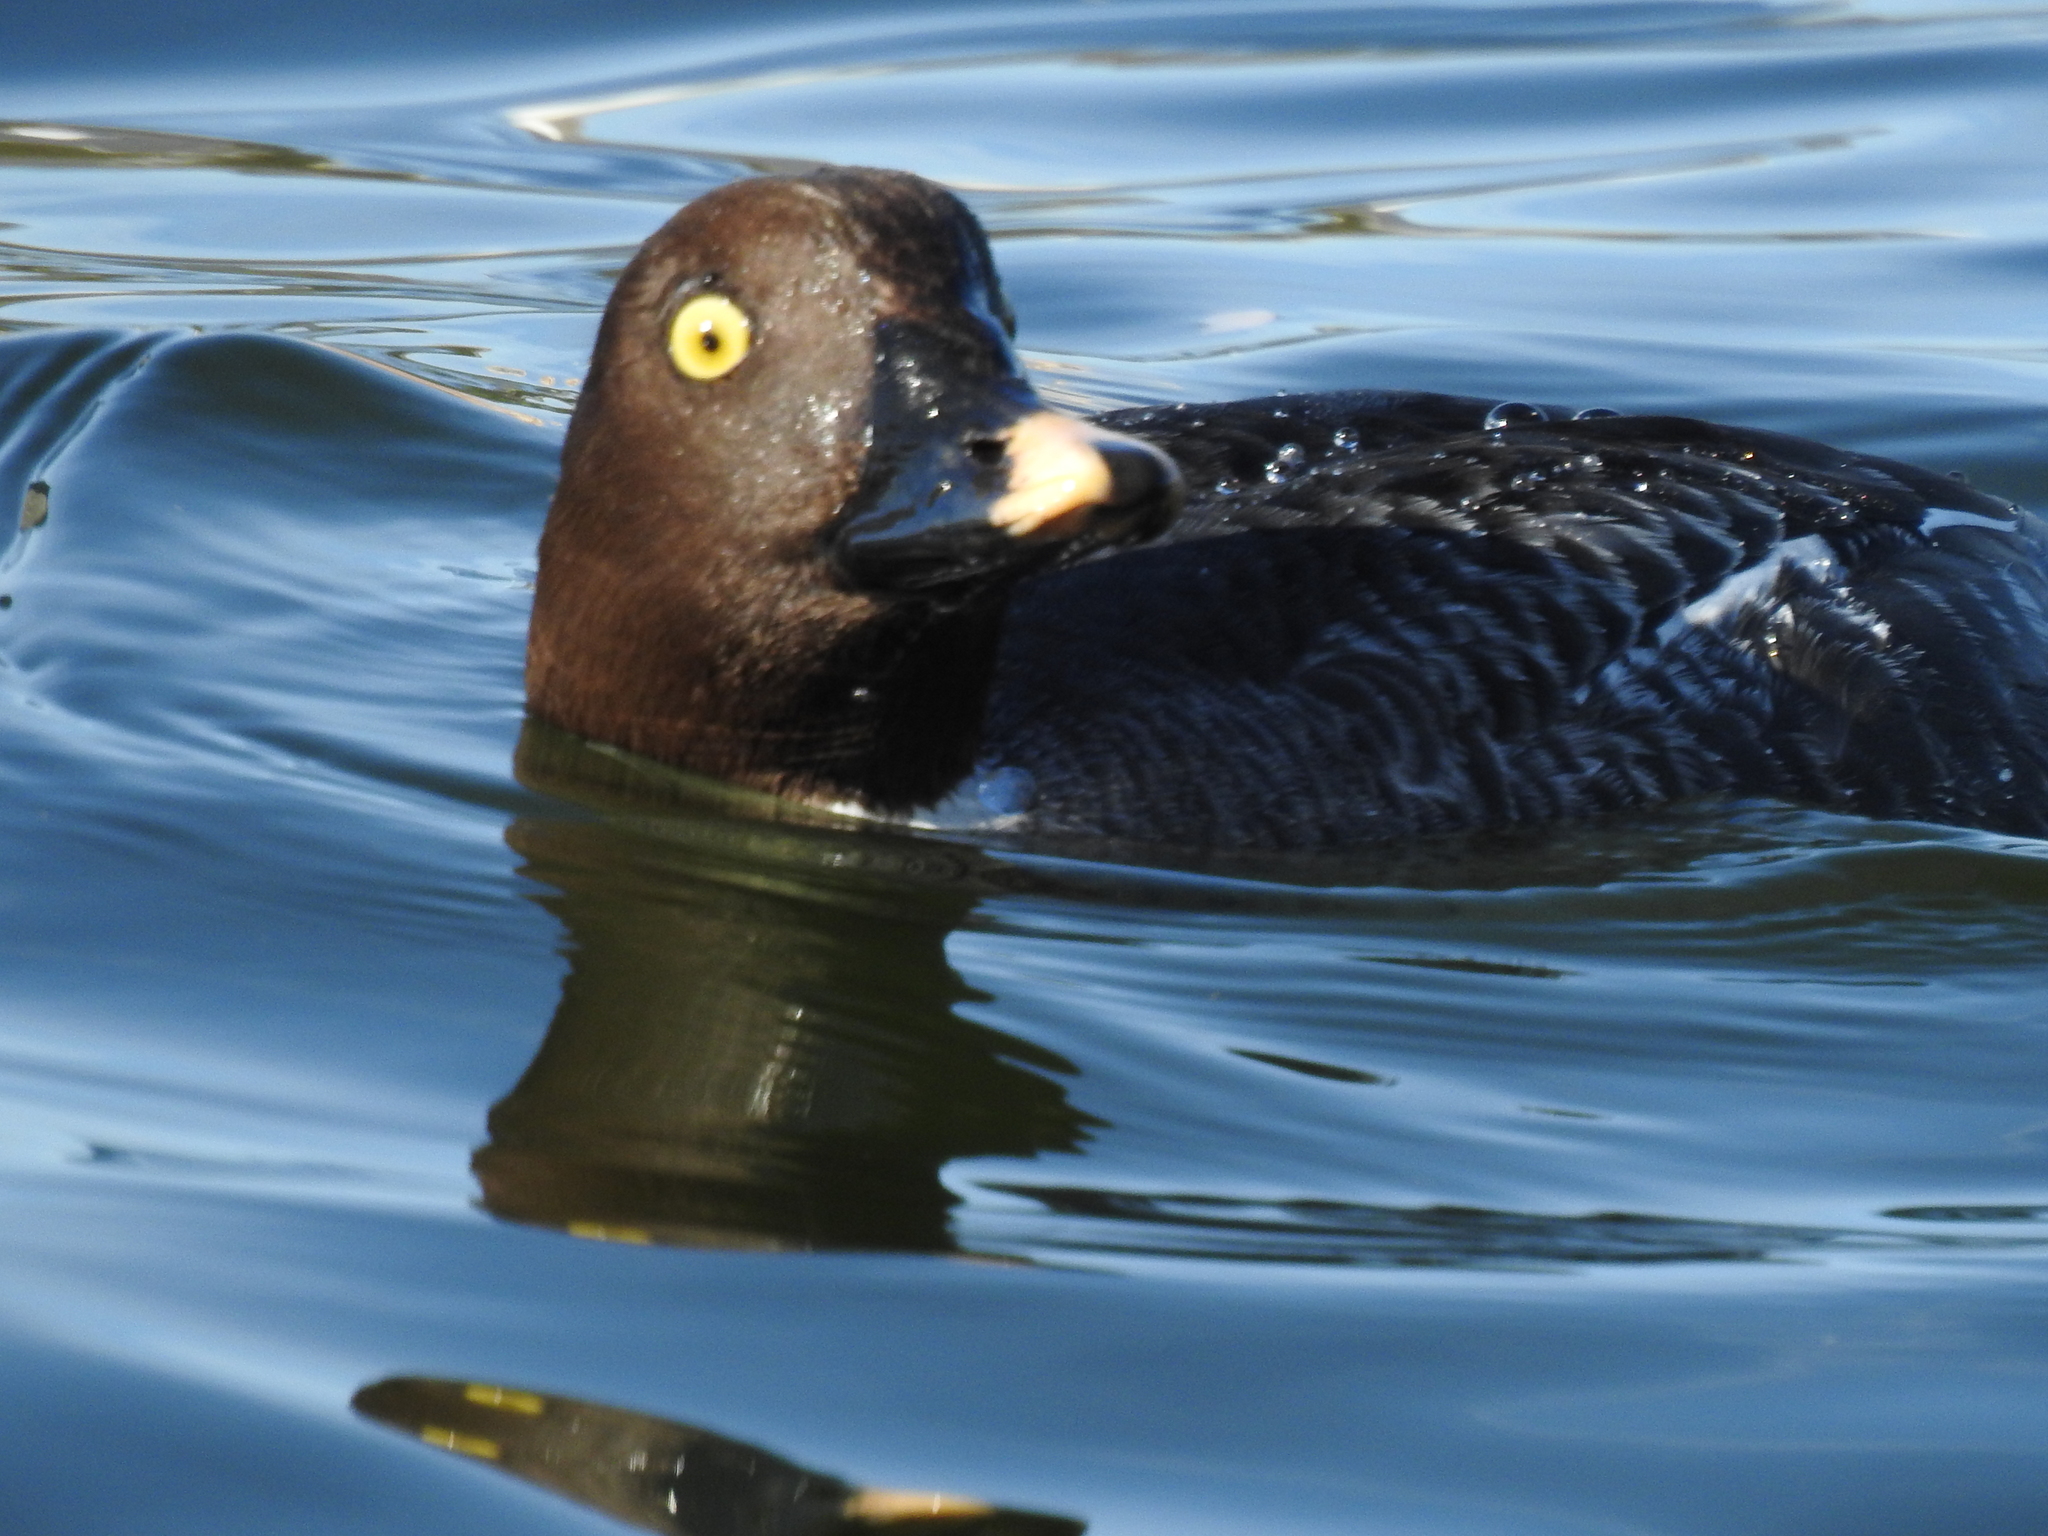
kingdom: Animalia
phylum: Chordata
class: Aves
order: Anseriformes
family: Anatidae
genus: Bucephala
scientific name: Bucephala clangula
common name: Common goldeneye
